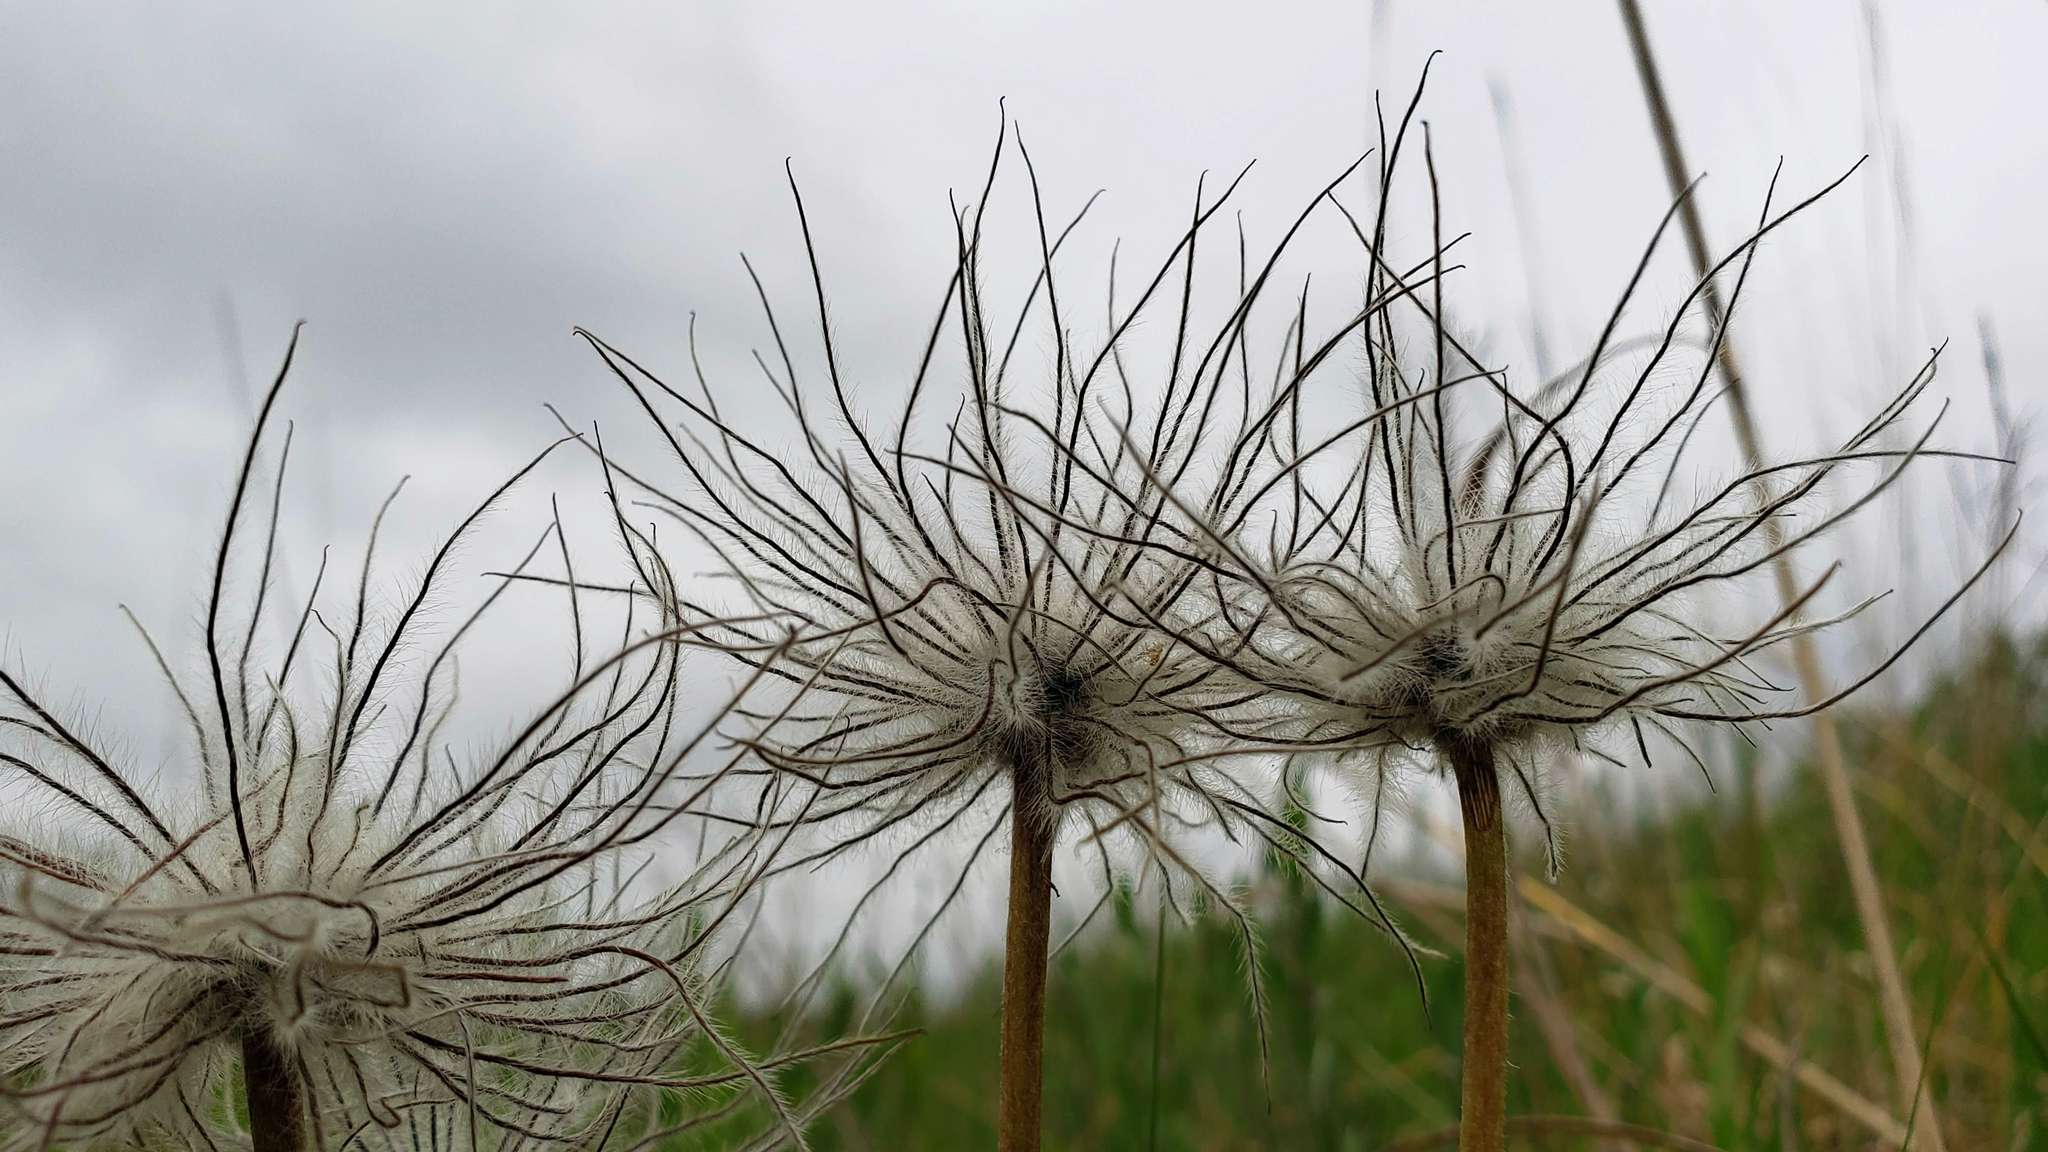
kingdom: Plantae
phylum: Tracheophyta
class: Magnoliopsida
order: Ranunculales
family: Ranunculaceae
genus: Pulsatilla
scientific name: Pulsatilla nuttalliana
